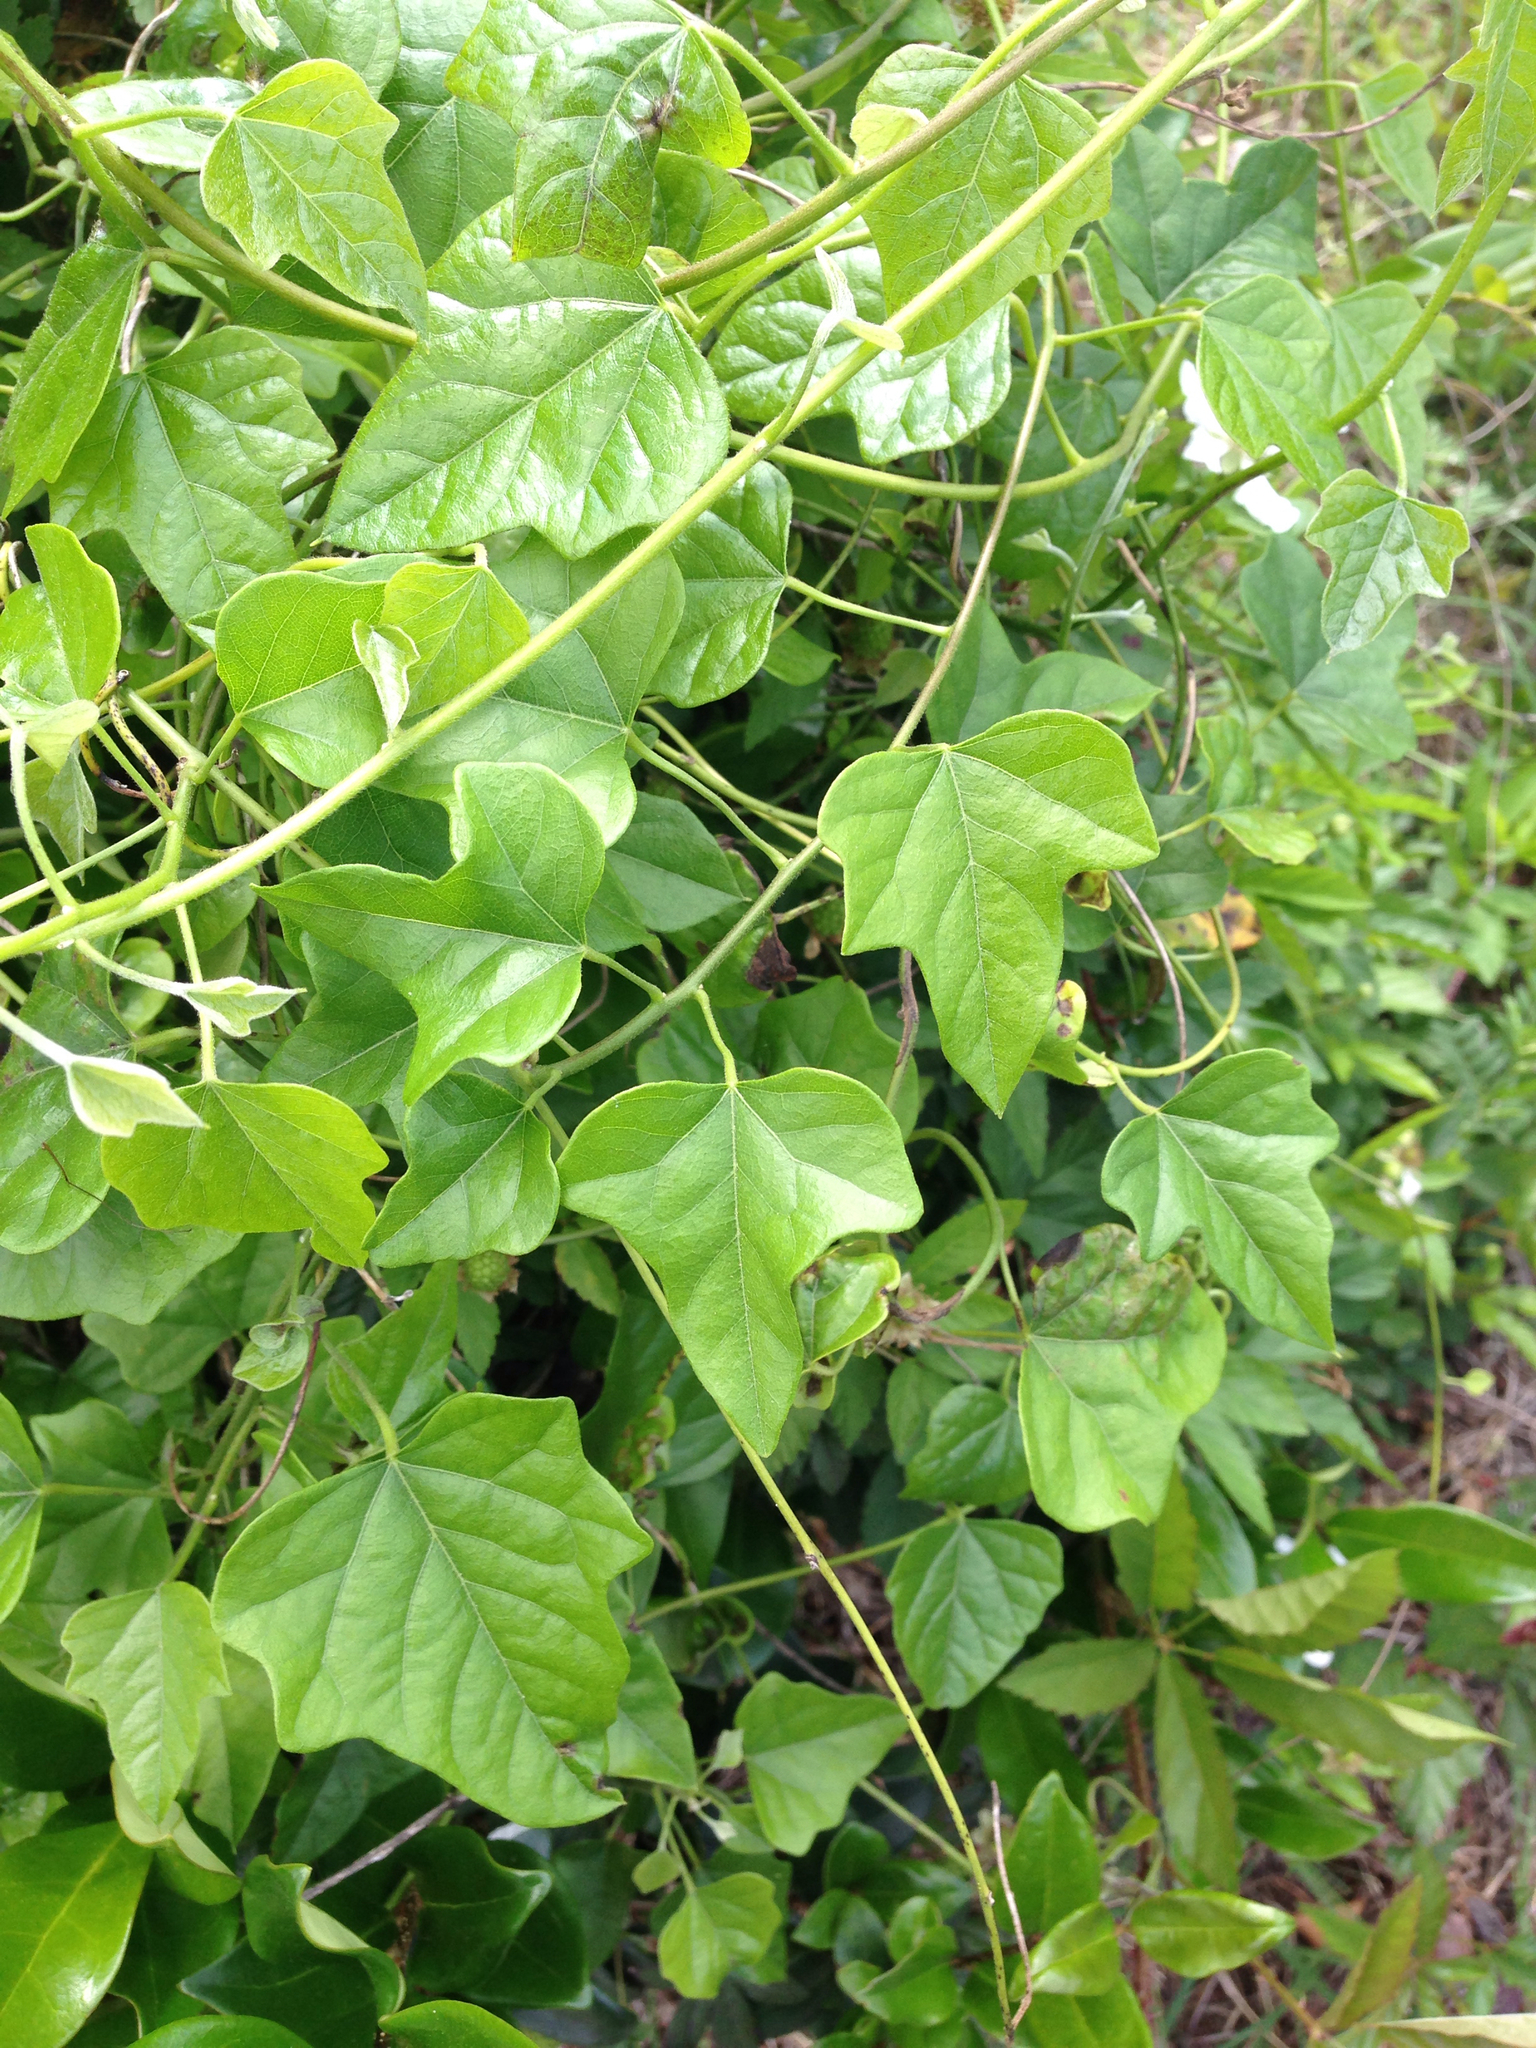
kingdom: Plantae
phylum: Tracheophyta
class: Magnoliopsida
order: Ranunculales
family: Menispermaceae
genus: Cocculus
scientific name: Cocculus carolinus
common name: Carolina moonseed
